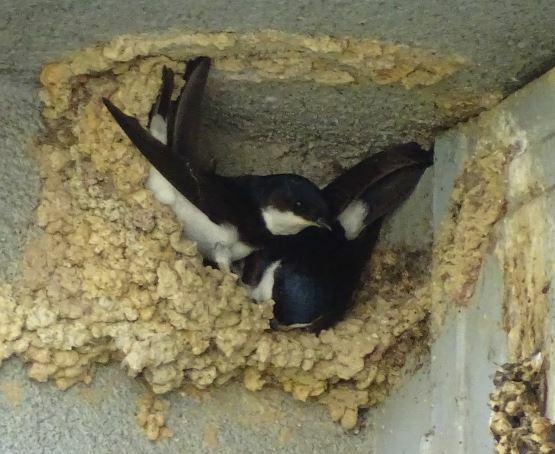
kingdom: Animalia
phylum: Chordata
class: Aves
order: Passeriformes
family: Hirundinidae
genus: Delichon
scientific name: Delichon urbicum
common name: Common house martin
